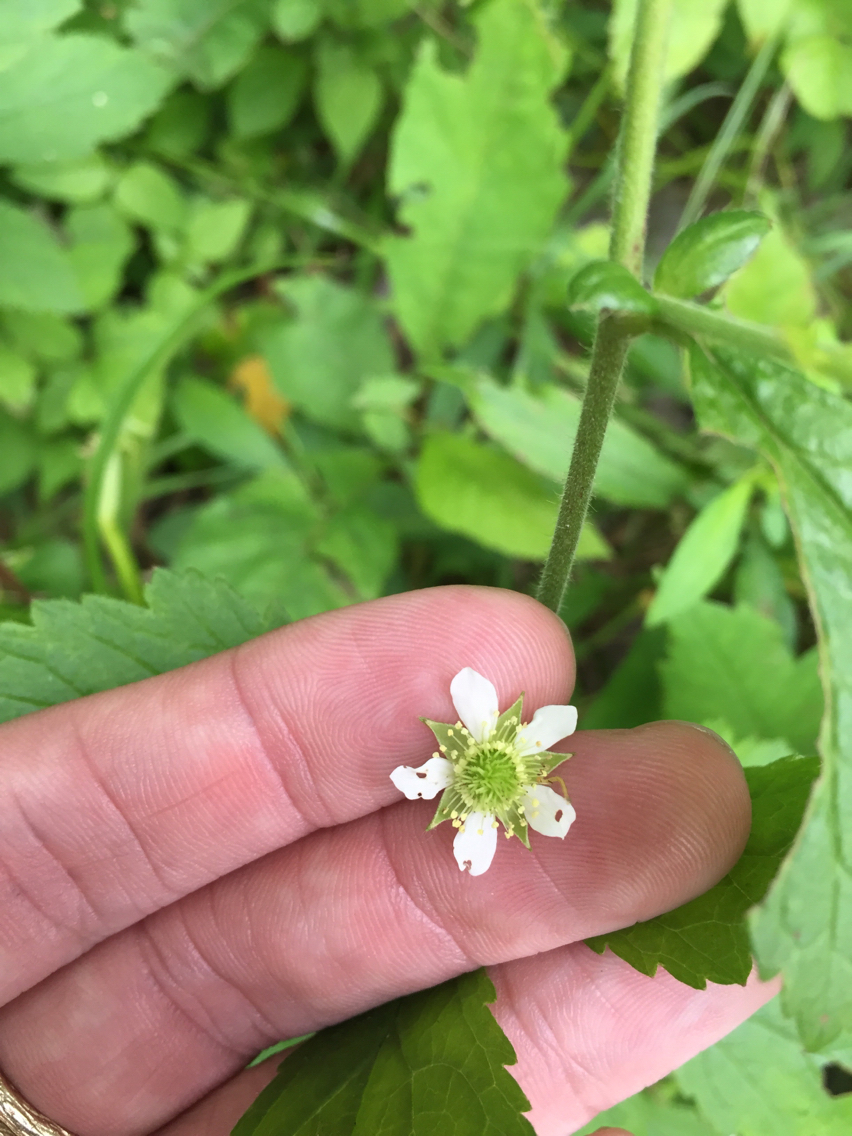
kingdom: Plantae
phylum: Tracheophyta
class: Magnoliopsida
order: Rosales
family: Rosaceae
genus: Geum
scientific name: Geum canadense
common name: White avens
